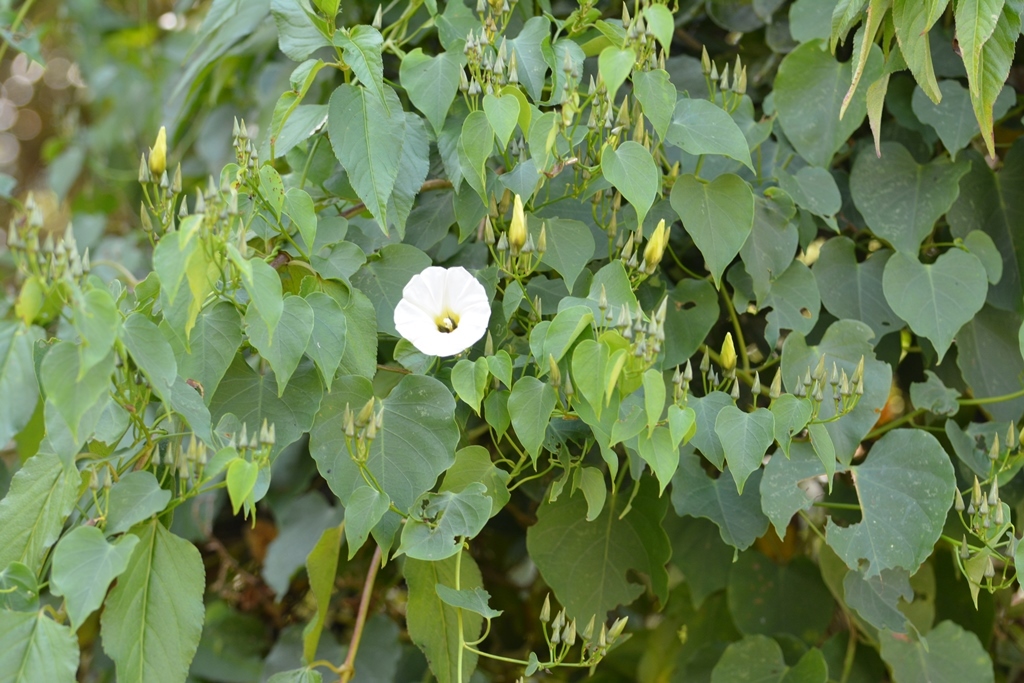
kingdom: Plantae
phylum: Tracheophyta
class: Magnoliopsida
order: Solanales
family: Convolvulaceae
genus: Ipomoea
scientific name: Ipomoea corymbosa
